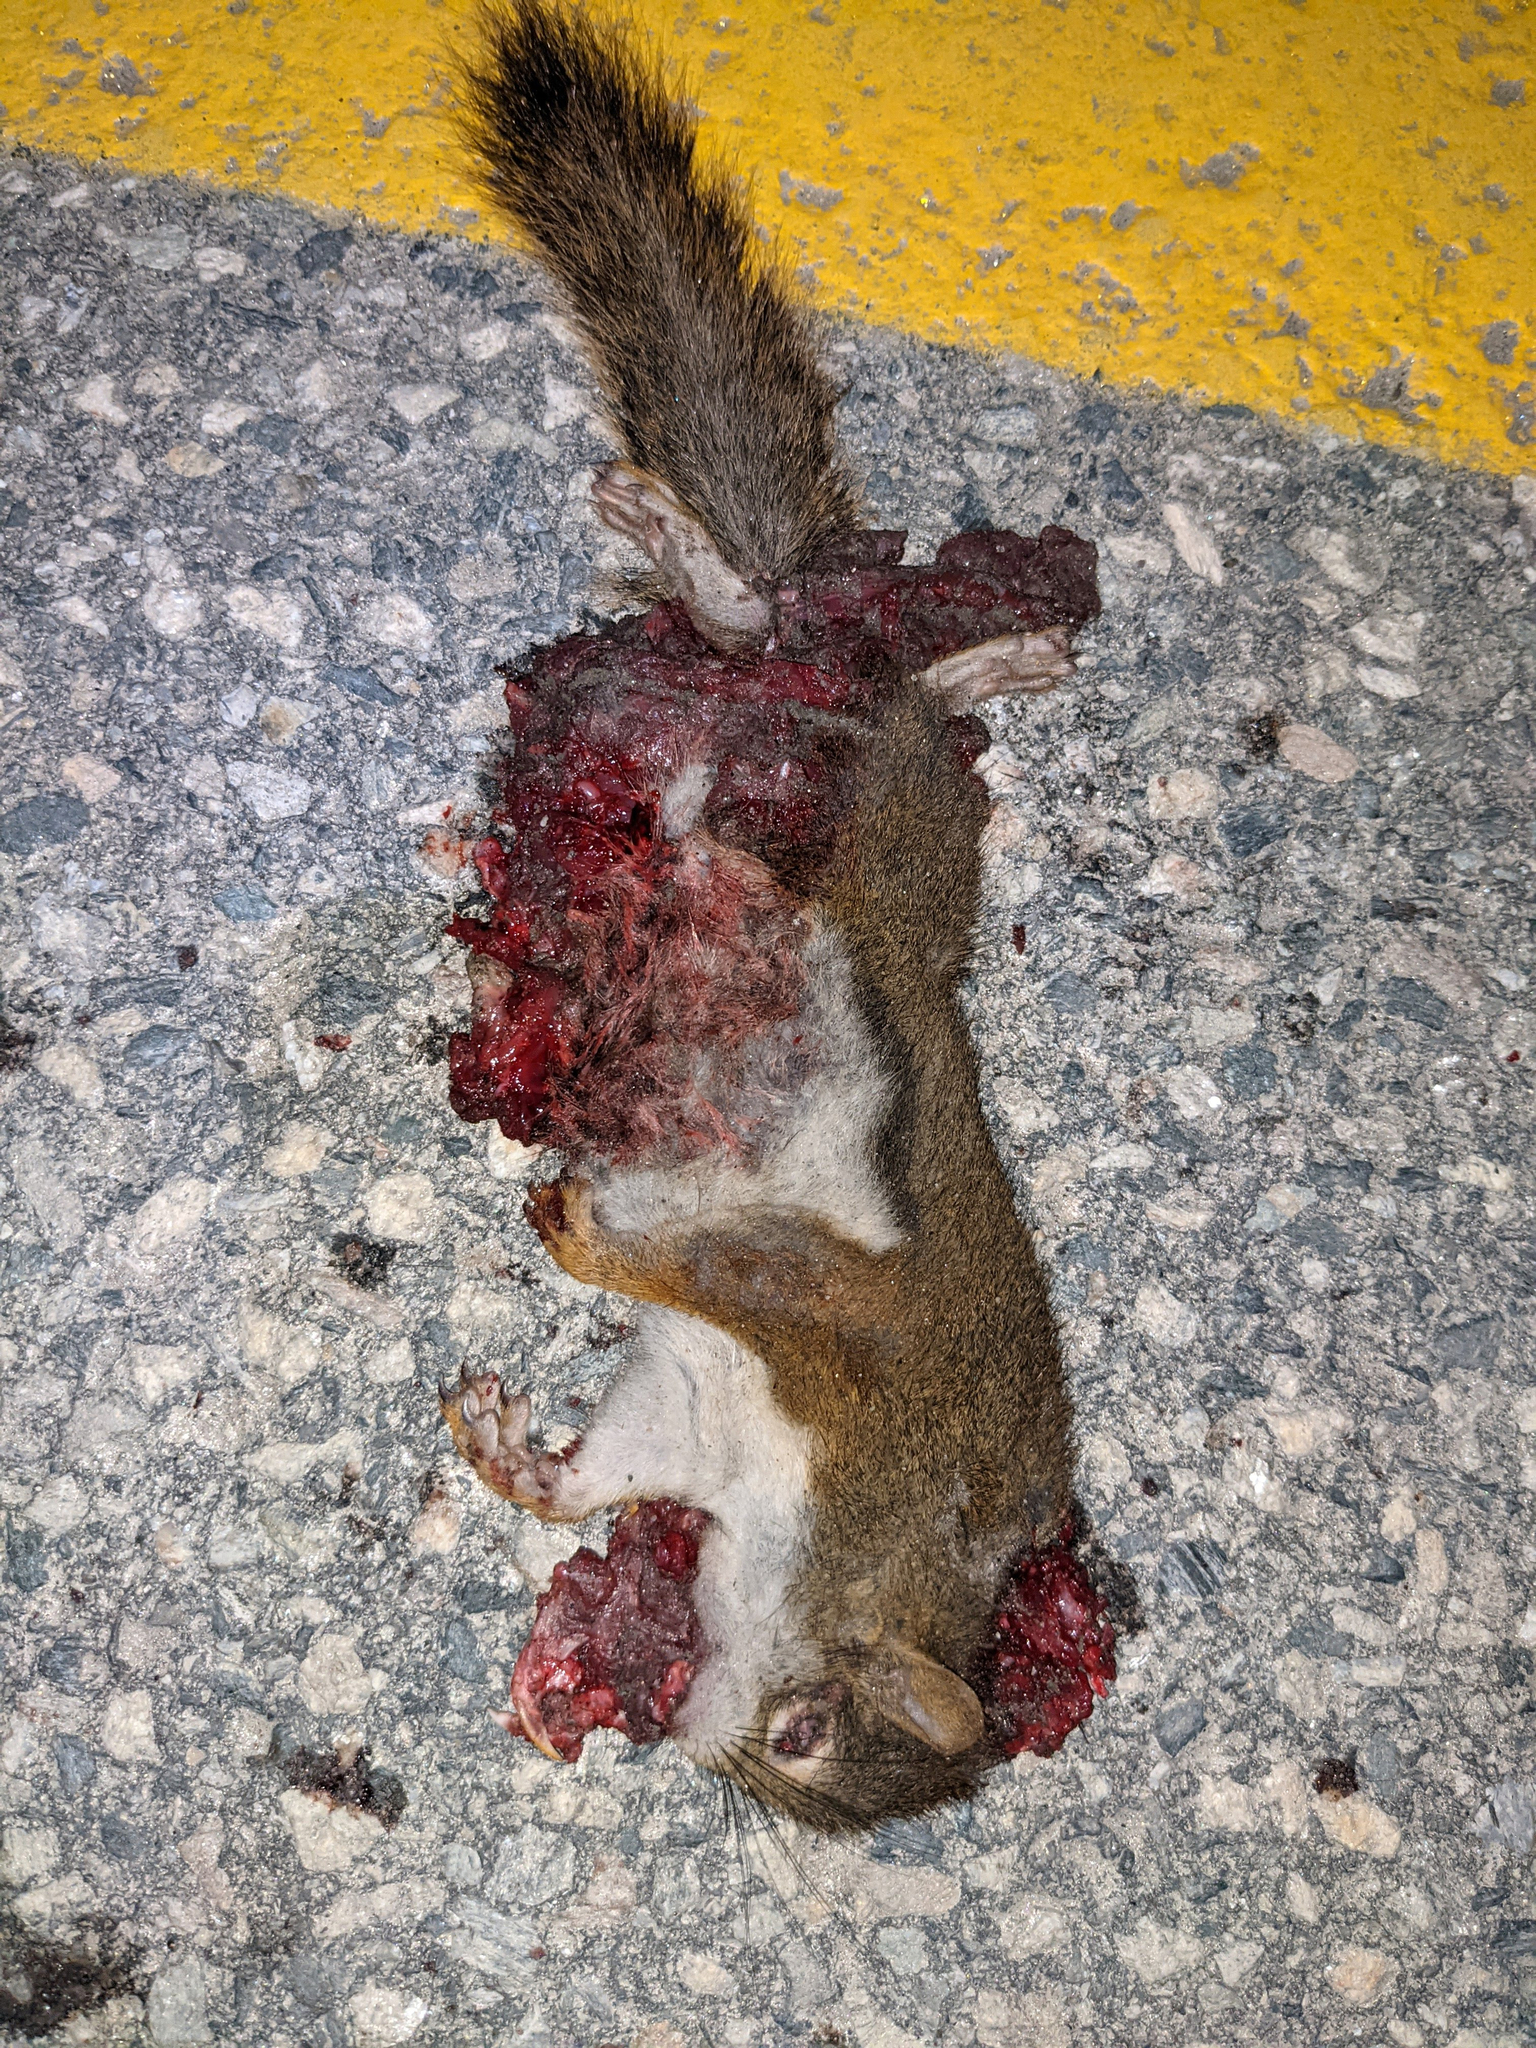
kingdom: Animalia
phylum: Chordata
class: Mammalia
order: Rodentia
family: Sciuridae
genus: Tamiasciurus
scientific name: Tamiasciurus hudsonicus
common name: Red squirrel
